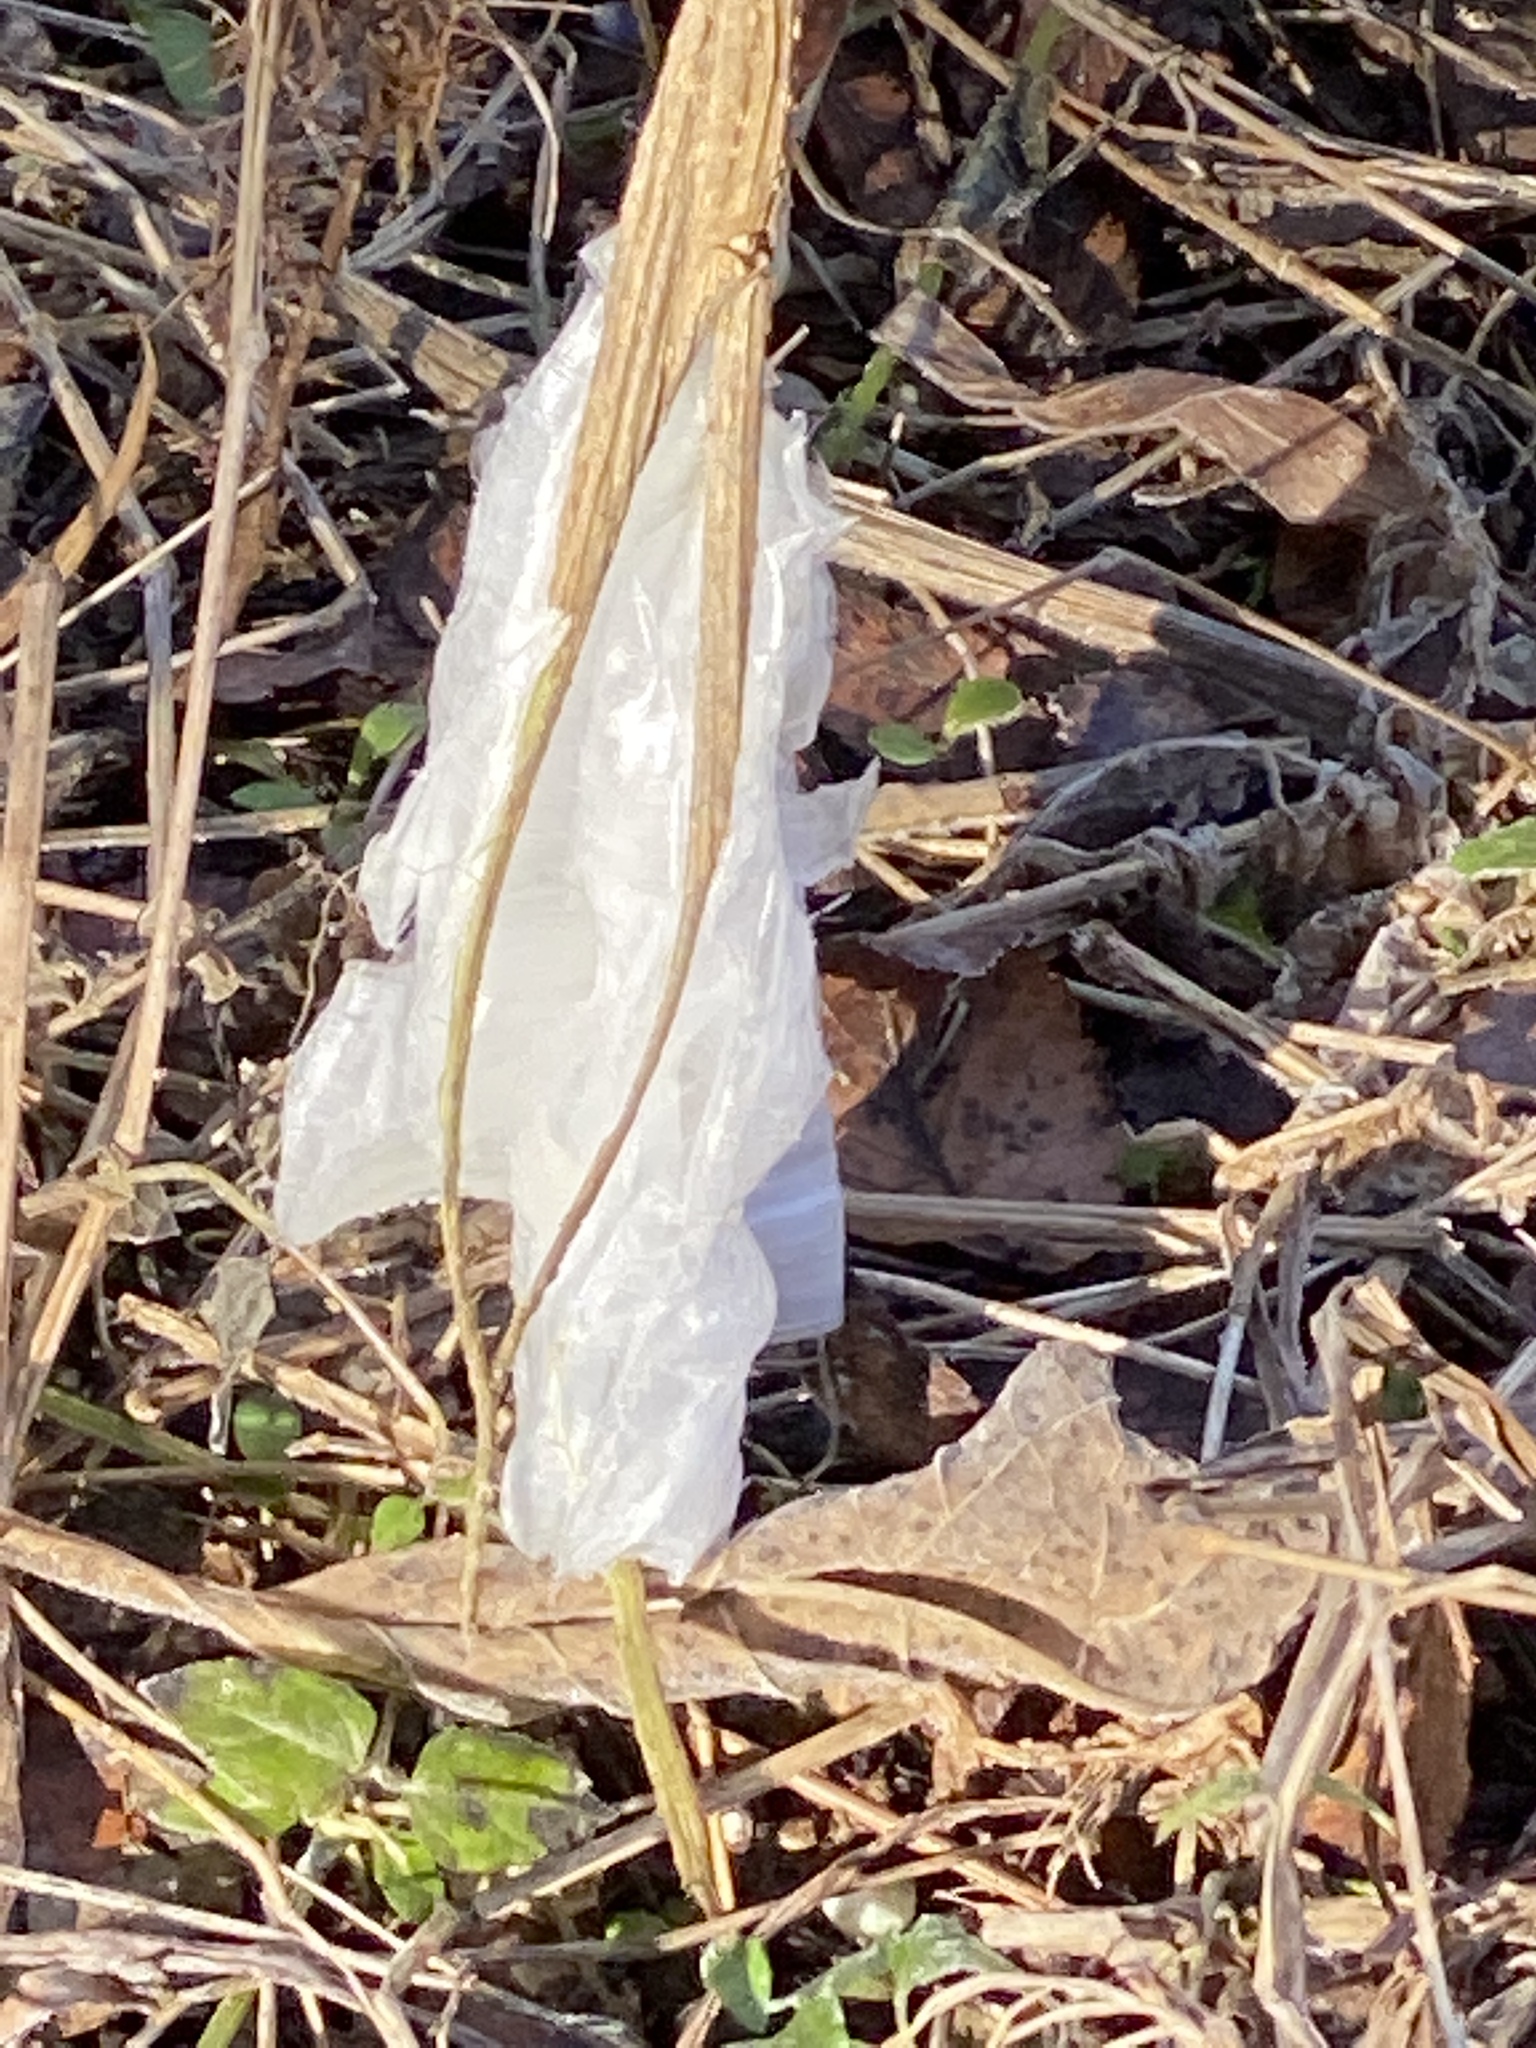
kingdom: Plantae
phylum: Tracheophyta
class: Magnoliopsida
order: Asterales
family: Asteraceae
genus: Verbesina
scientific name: Verbesina virginica
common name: Frostweed
